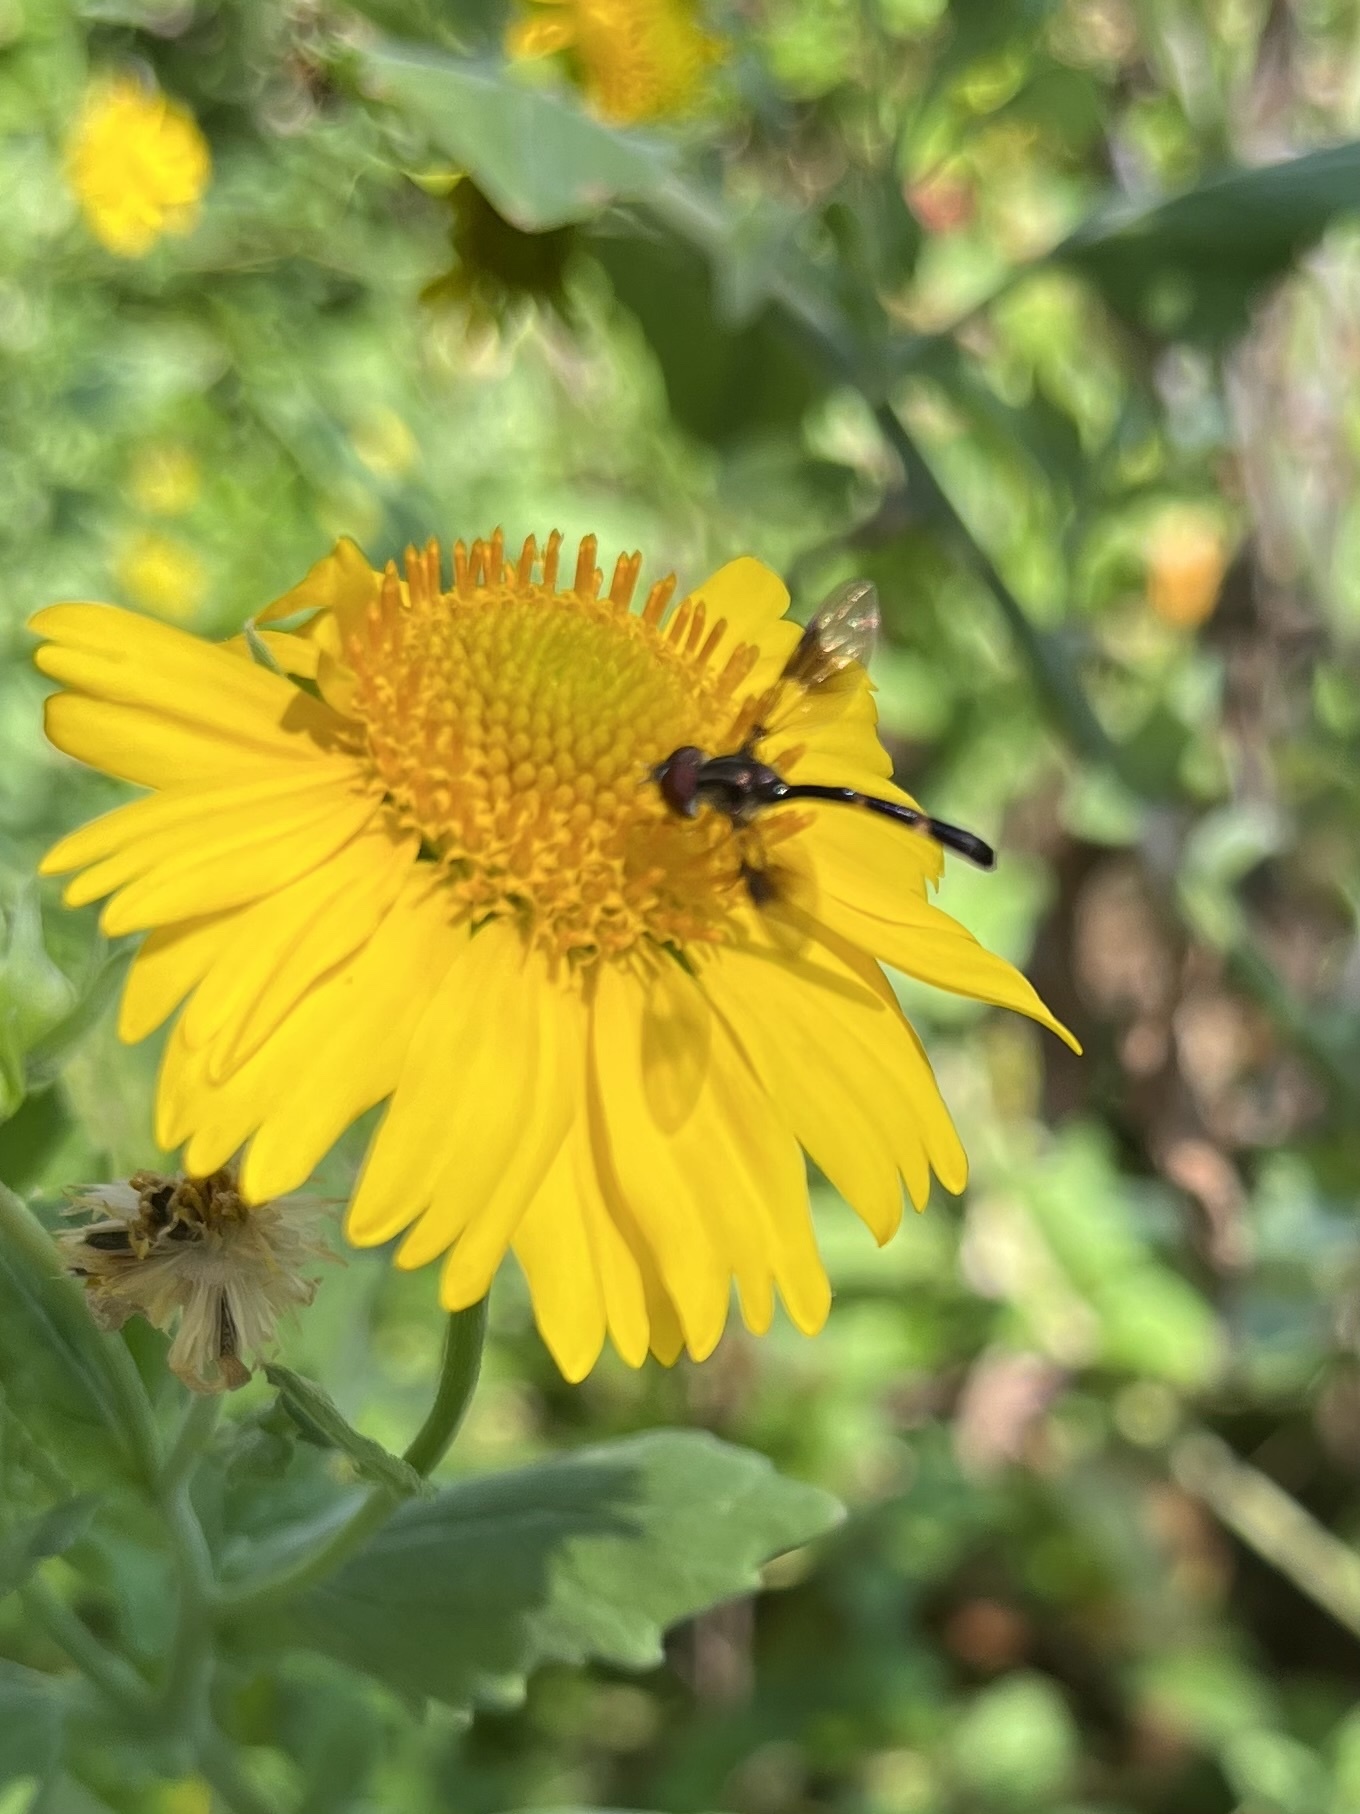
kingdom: Animalia
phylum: Arthropoda
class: Insecta
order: Diptera
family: Syrphidae
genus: Hypocritanus
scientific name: Hypocritanus fascipennis
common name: Eastern band-winged hover fly
